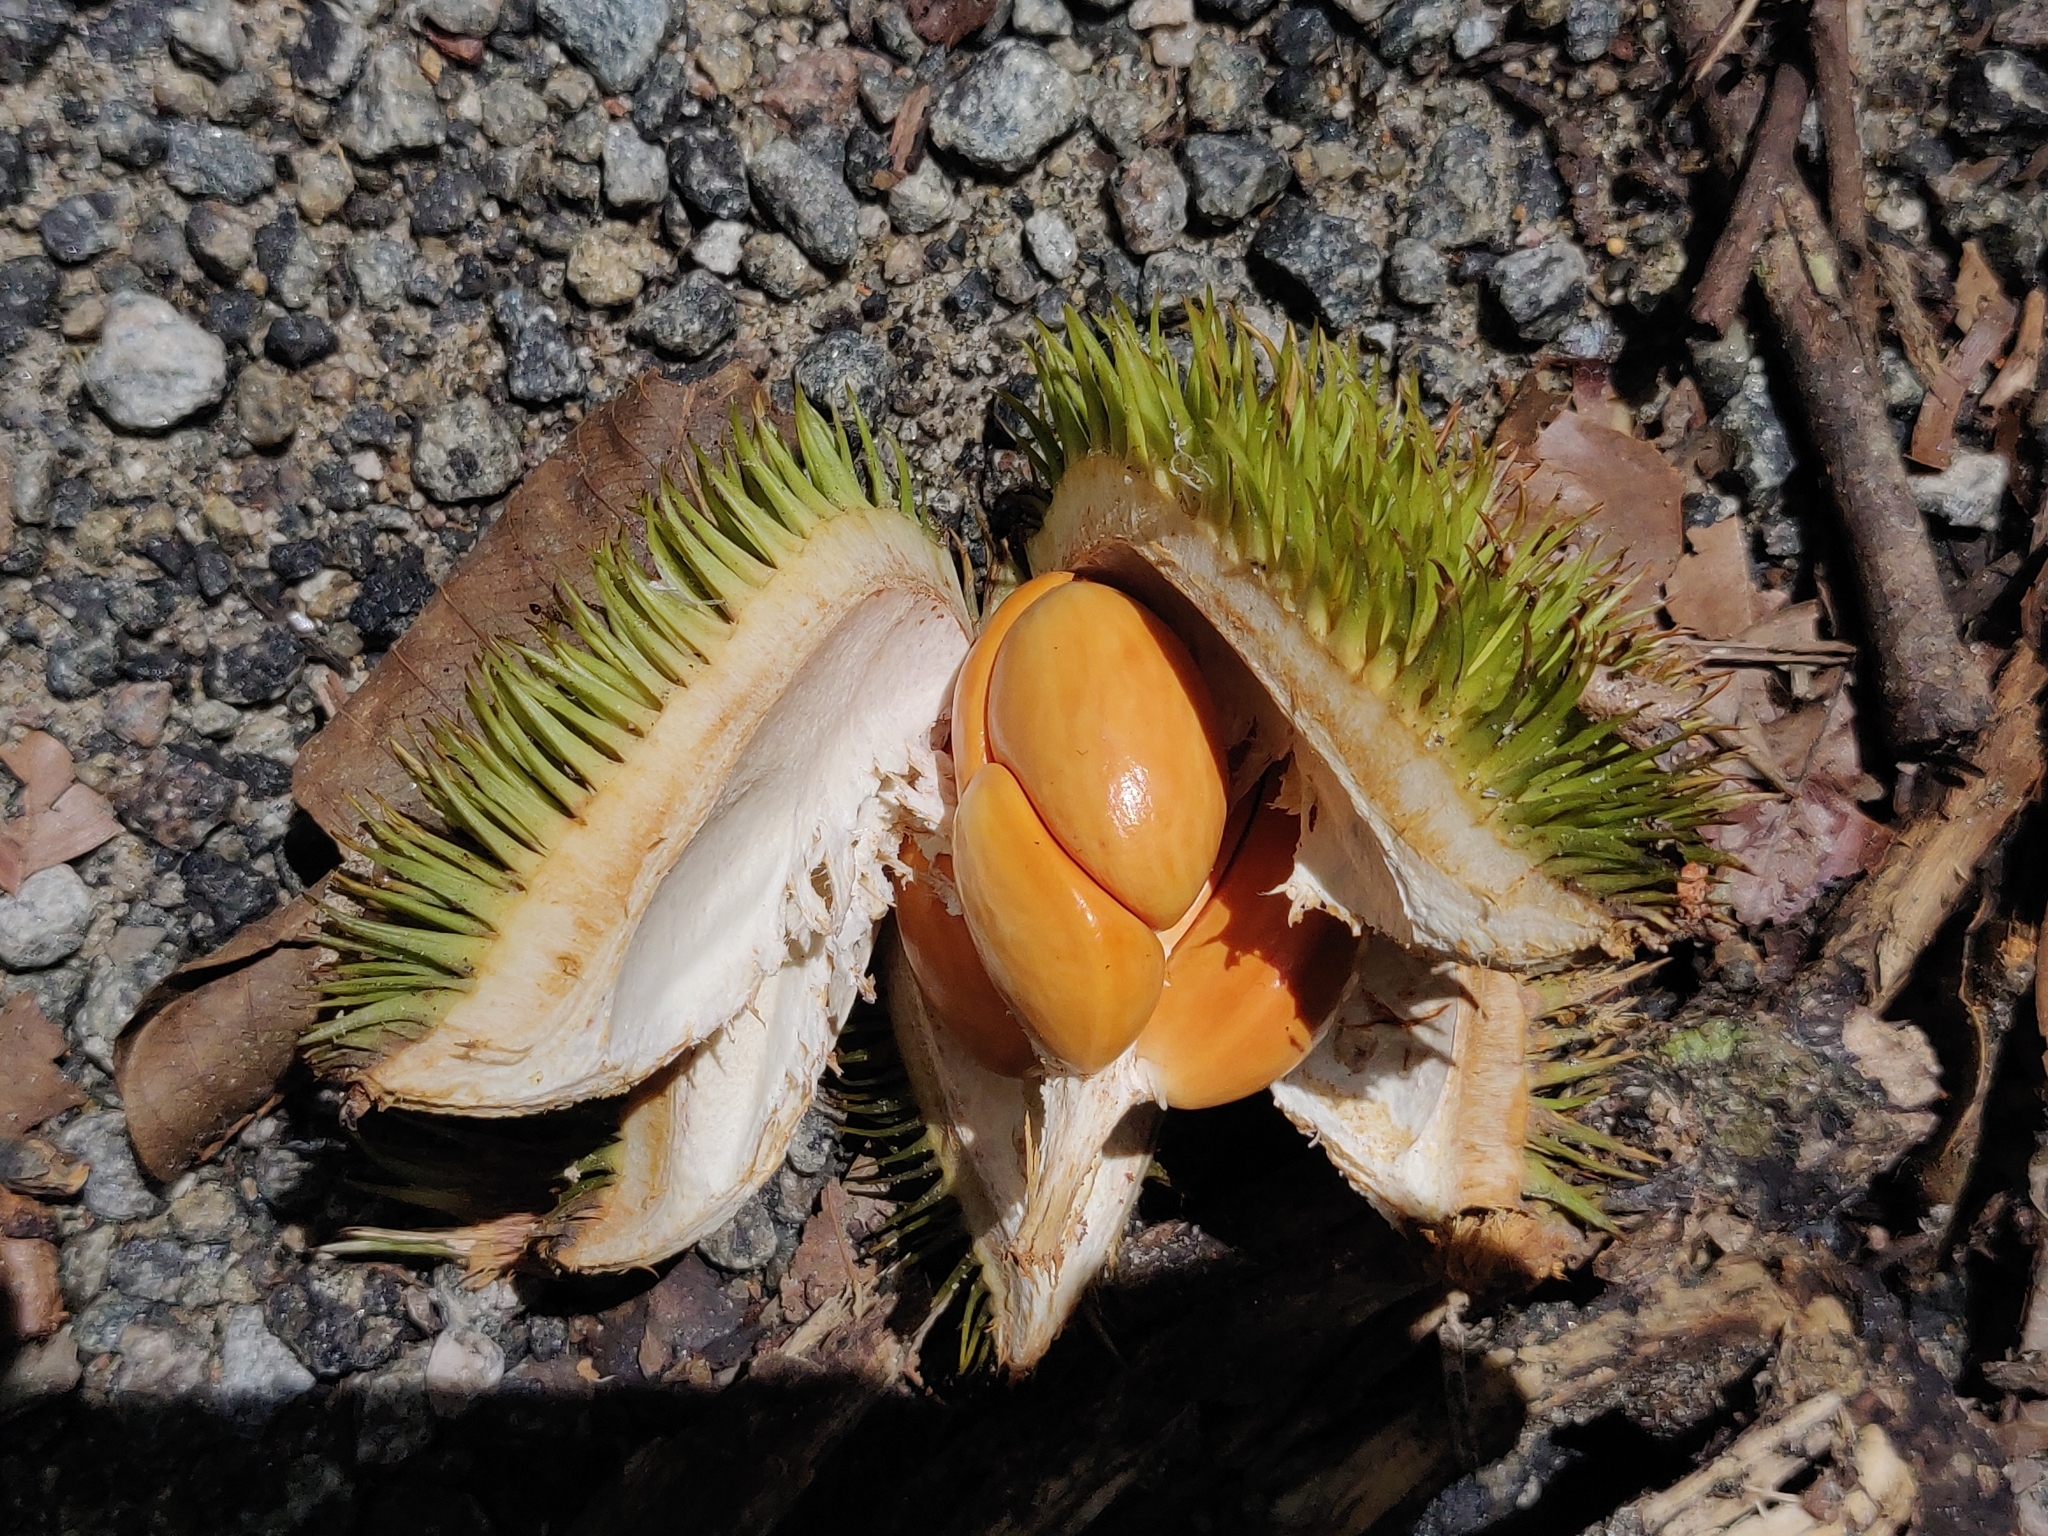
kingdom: Plantae
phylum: Tracheophyta
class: Magnoliopsida
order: Malvales
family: Malvaceae
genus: Cullenia
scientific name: Cullenia exarillata
